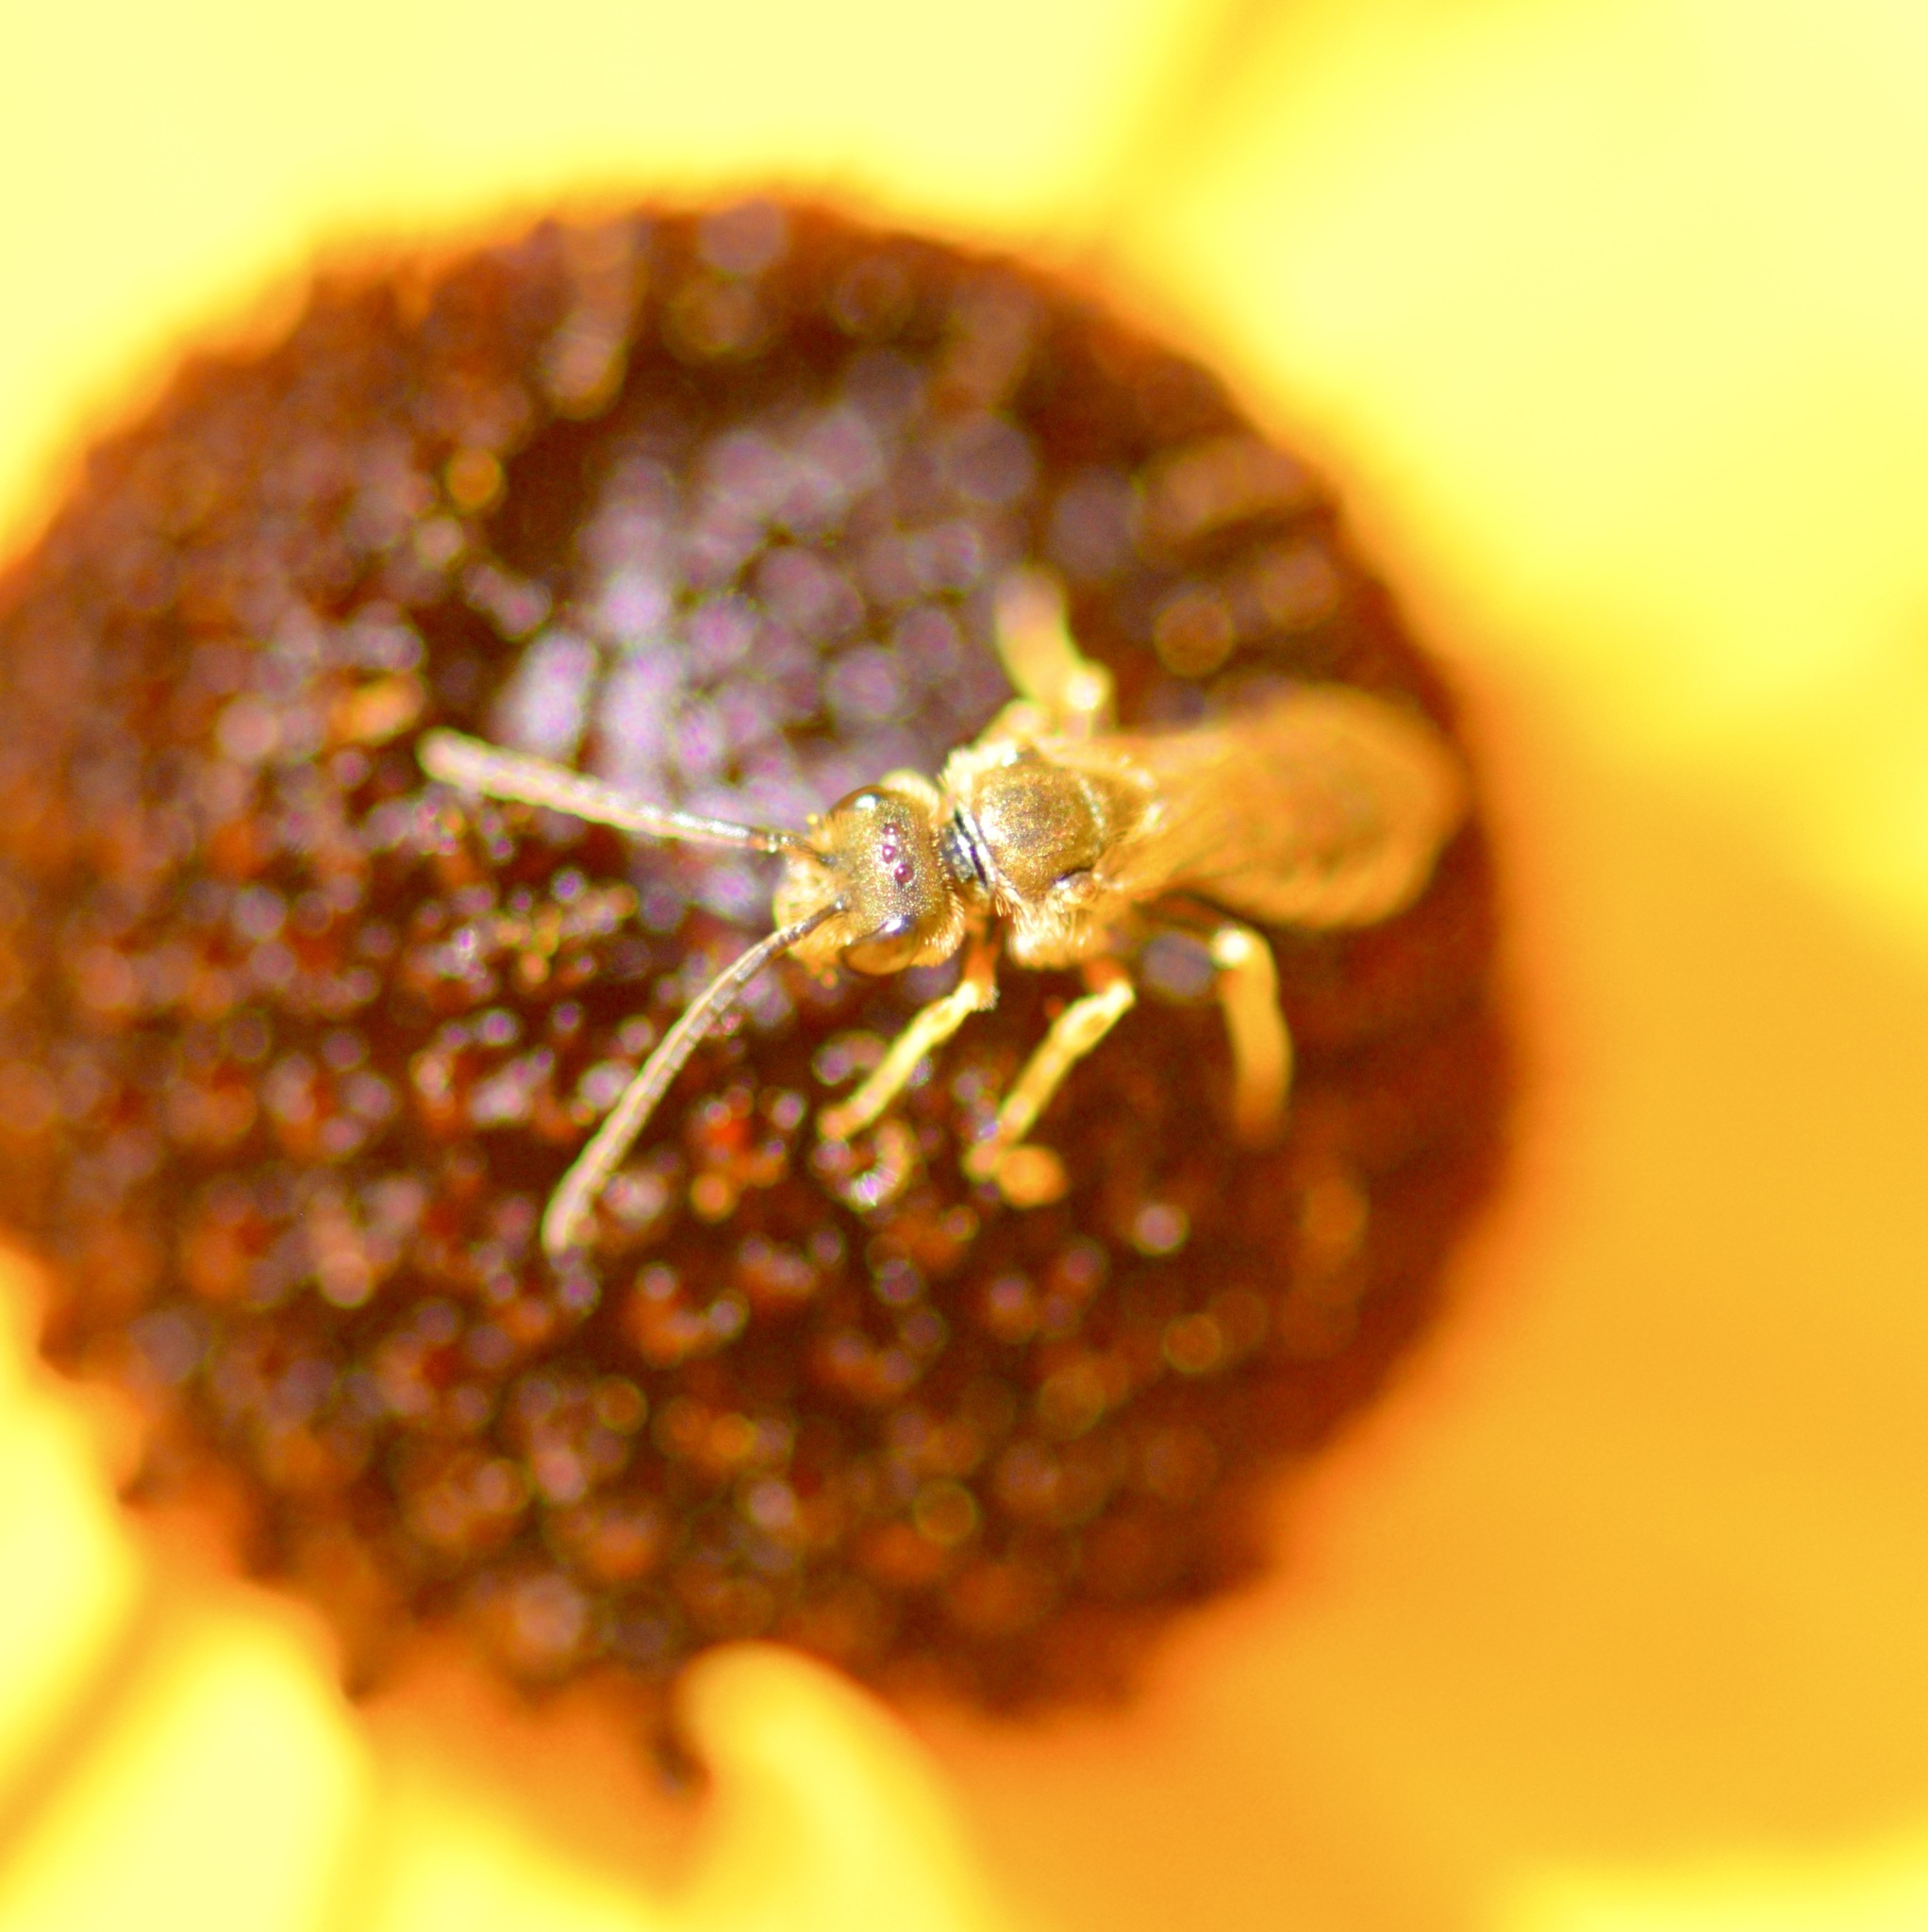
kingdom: Animalia
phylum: Arthropoda
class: Insecta
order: Hymenoptera
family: Halictidae
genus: Halictus
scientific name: Halictus confusus
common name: Southern bronze furrow bee
